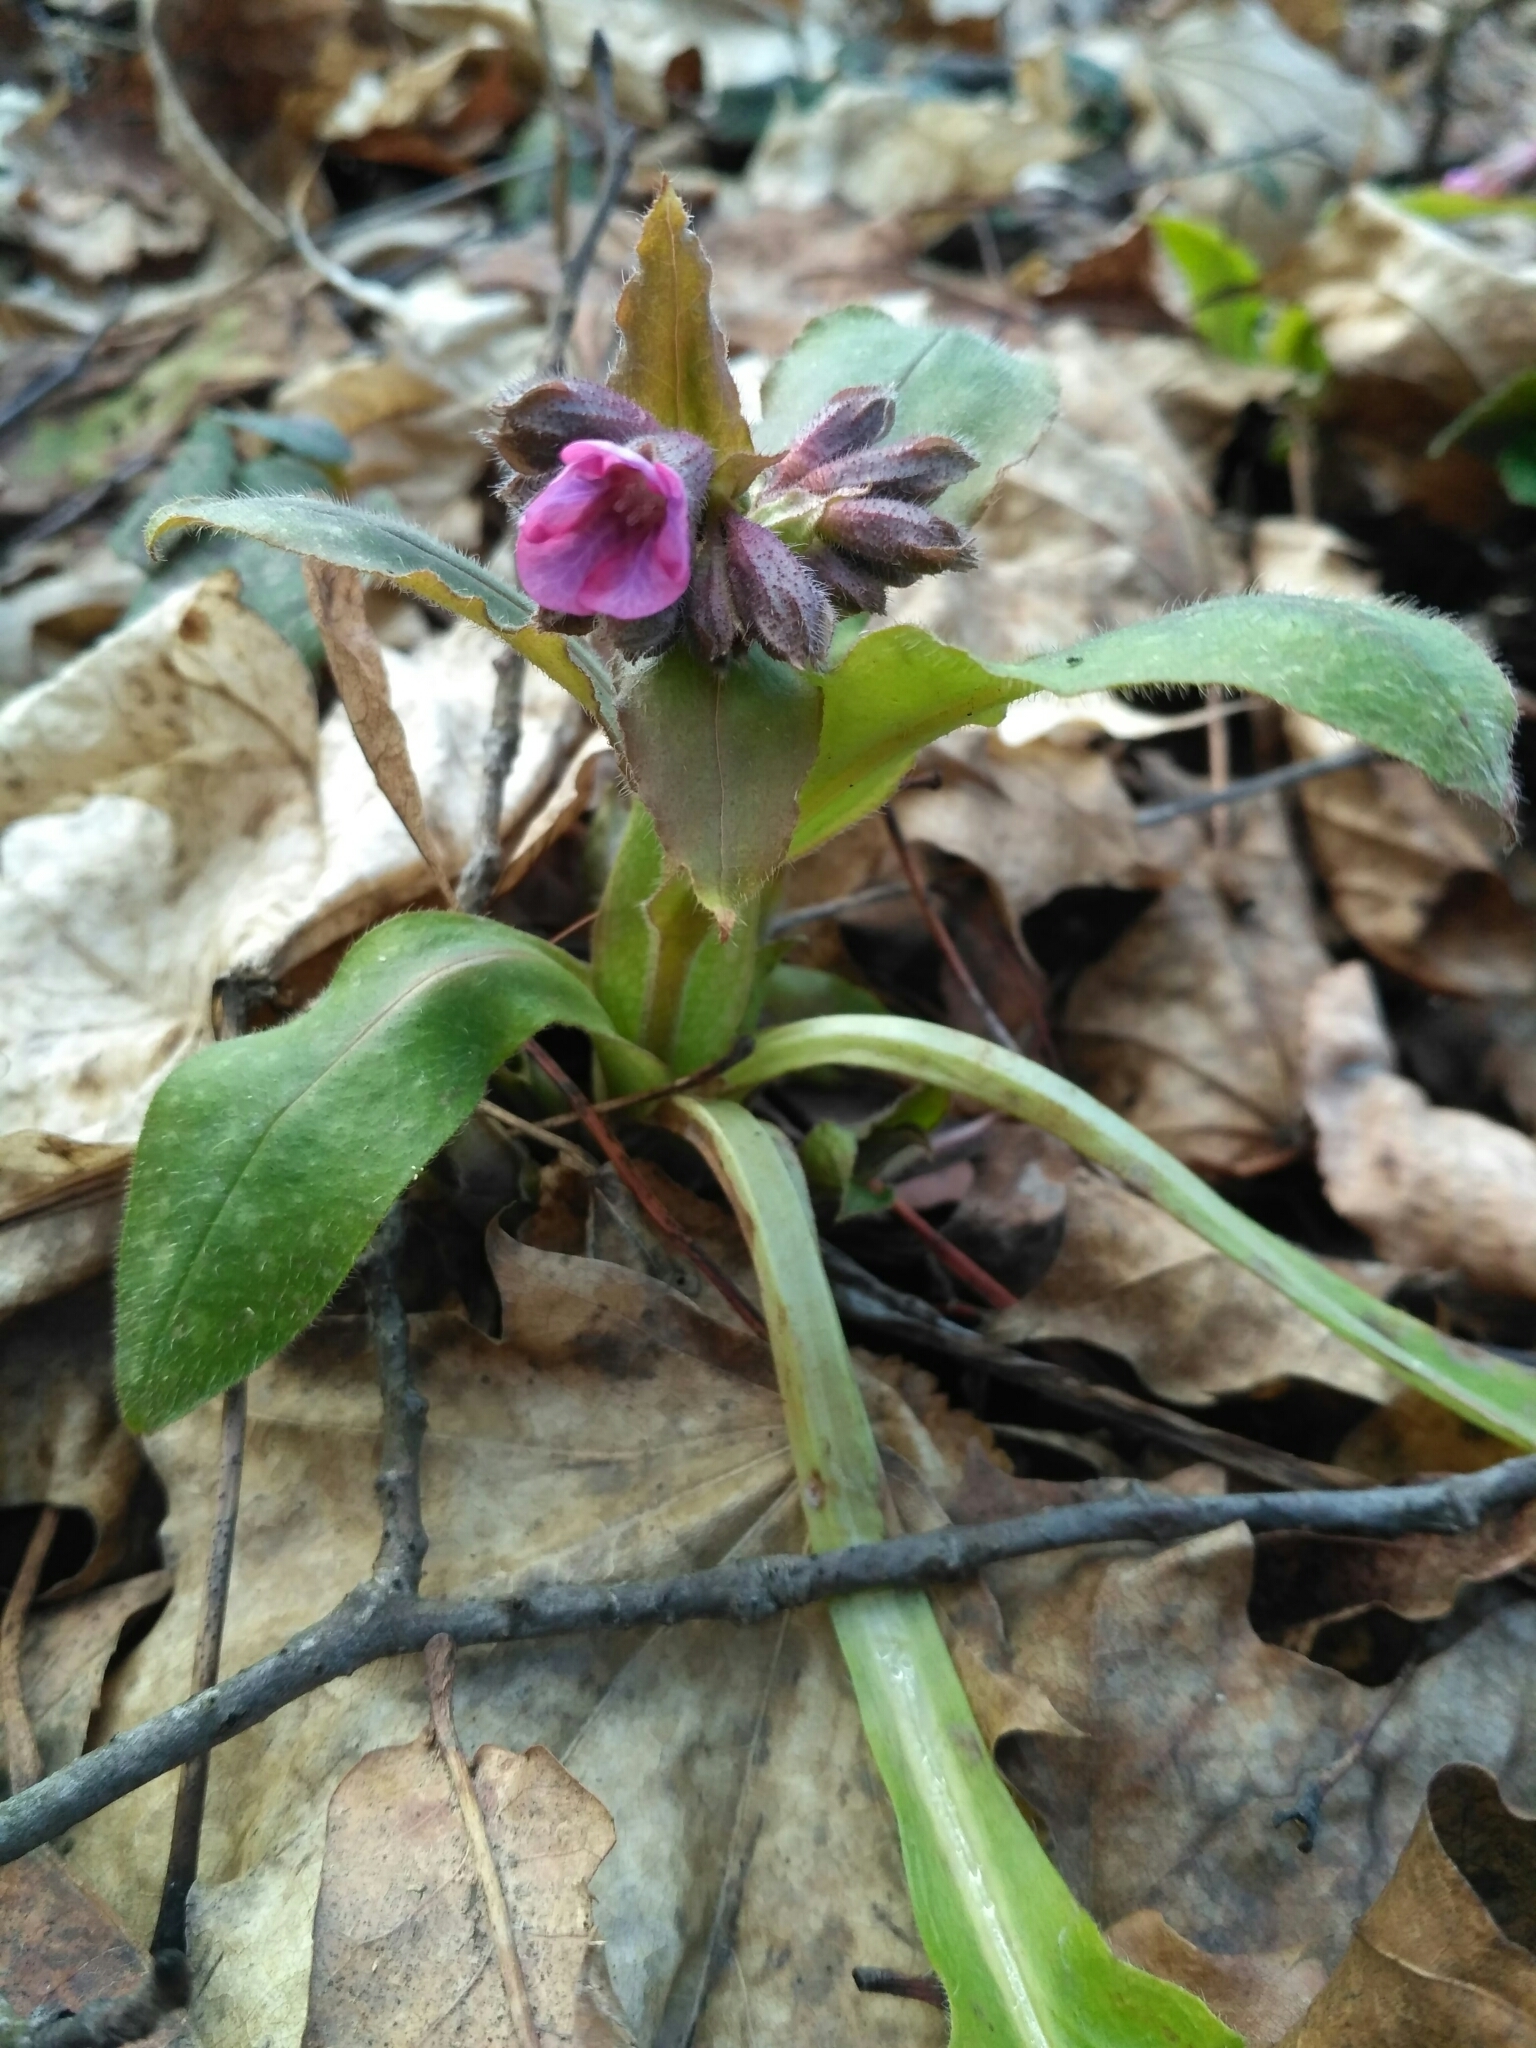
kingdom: Plantae
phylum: Tracheophyta
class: Magnoliopsida
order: Boraginales
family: Boraginaceae
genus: Pulmonaria
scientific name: Pulmonaria obscura
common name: Suffolk lungwort
